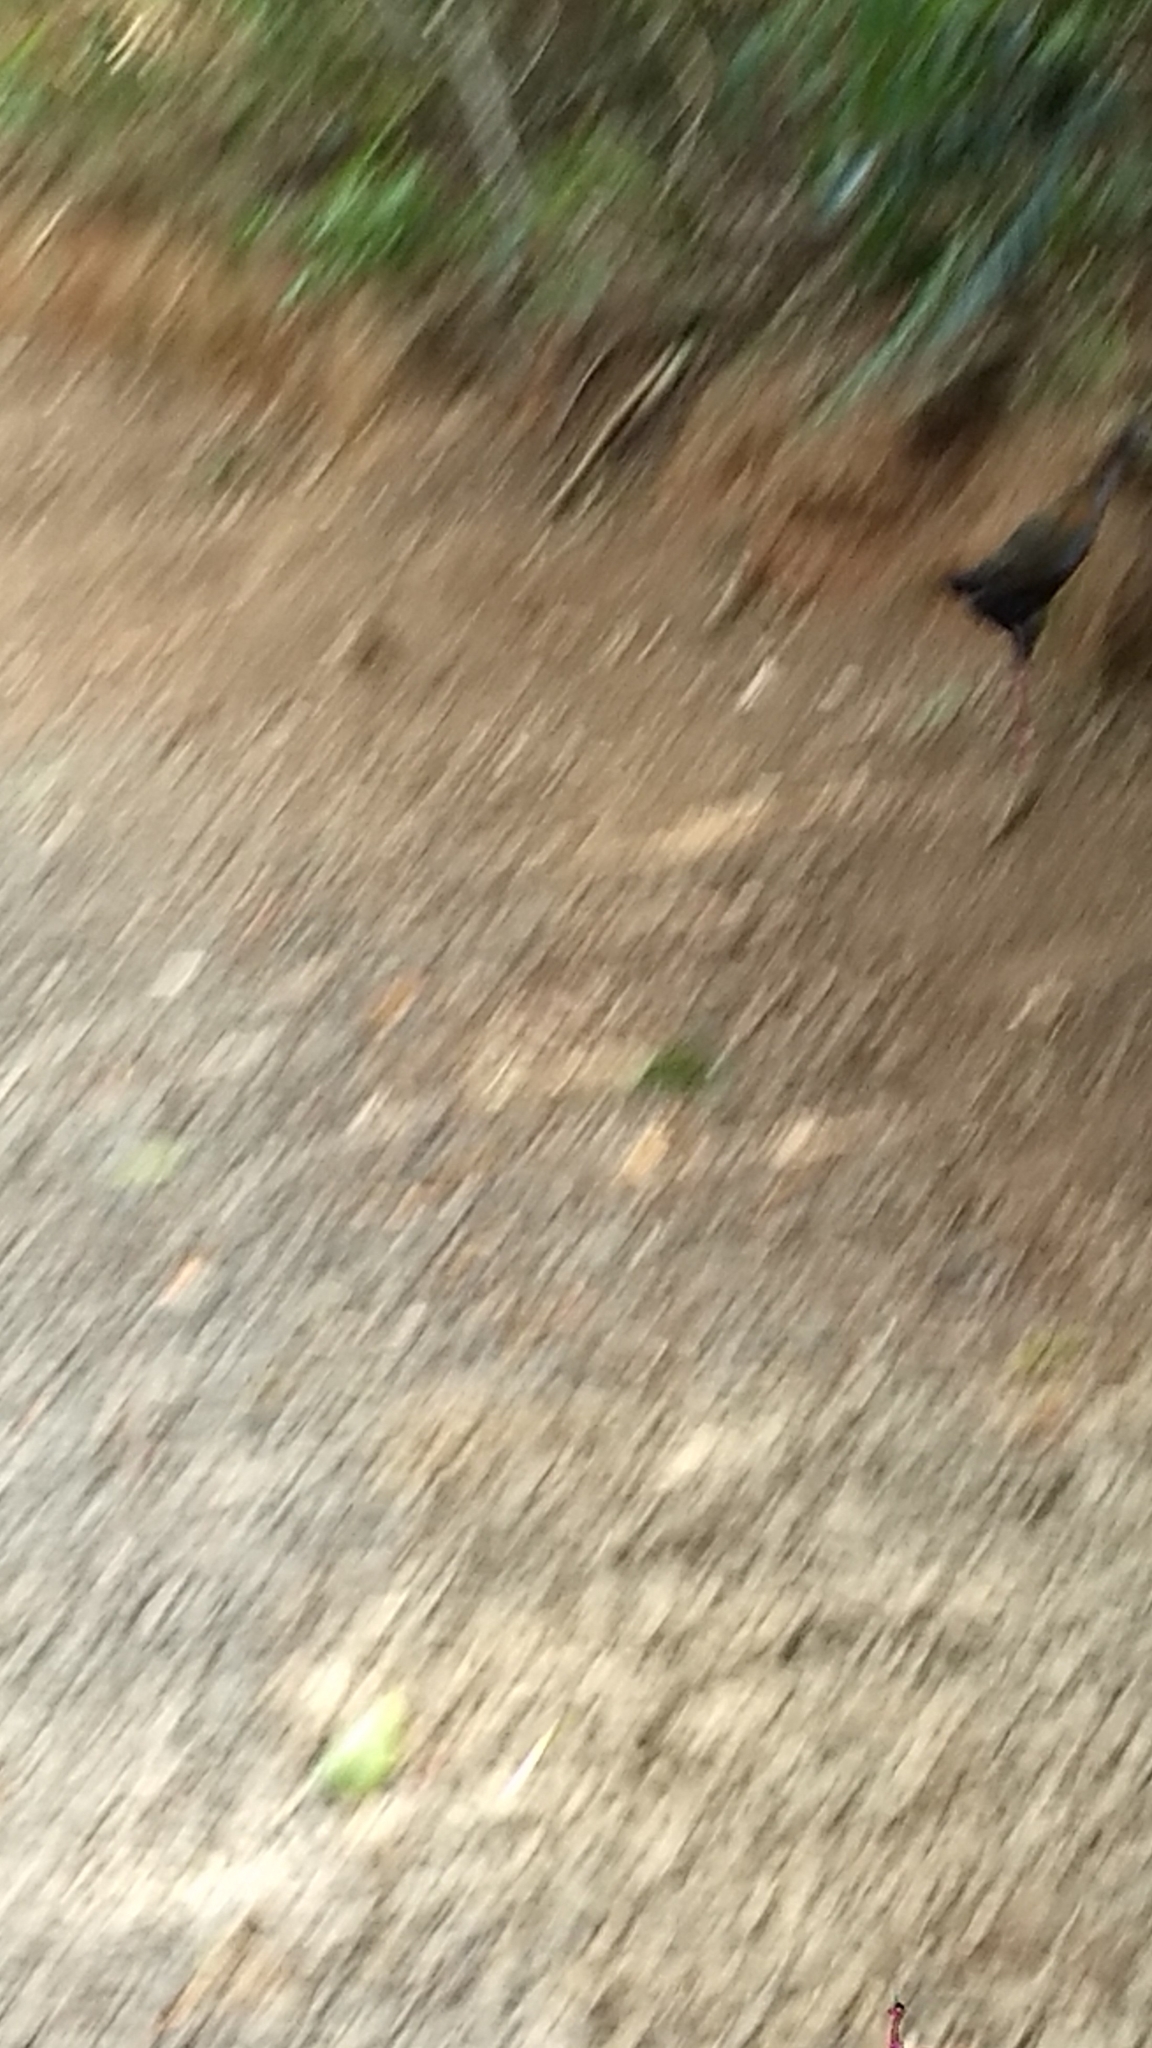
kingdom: Animalia
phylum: Chordata
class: Aves
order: Gruiformes
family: Rallidae
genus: Aramides
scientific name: Aramides saracura
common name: Slaty-breasted wood rail
